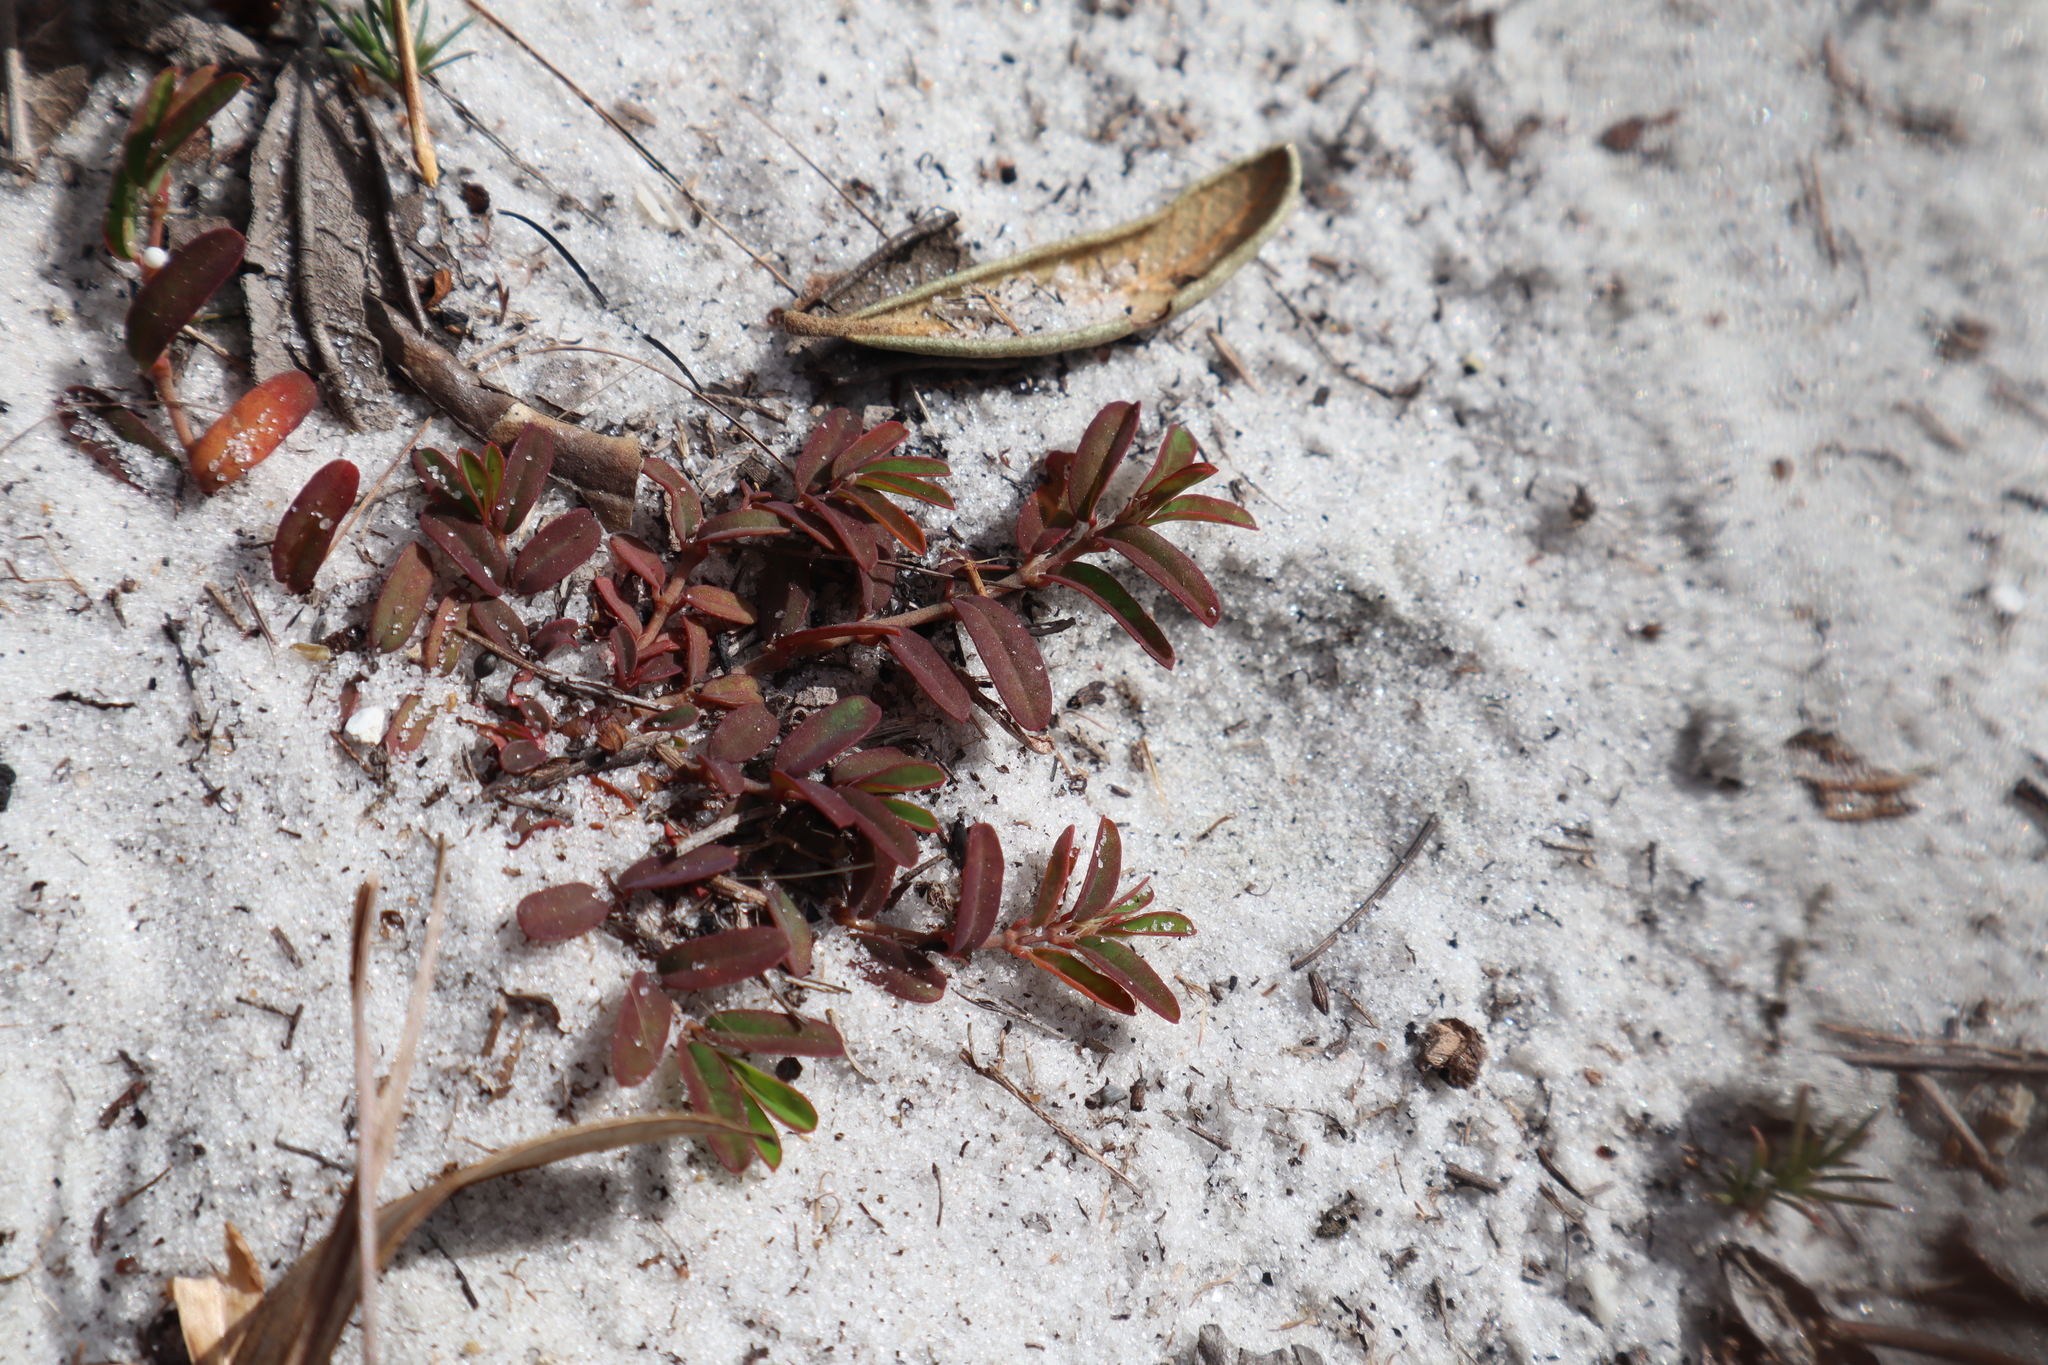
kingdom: Plantae
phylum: Tracheophyta
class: Magnoliopsida
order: Malpighiales
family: Euphorbiaceae
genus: Euphorbia
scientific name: Euphorbia cumulicola
